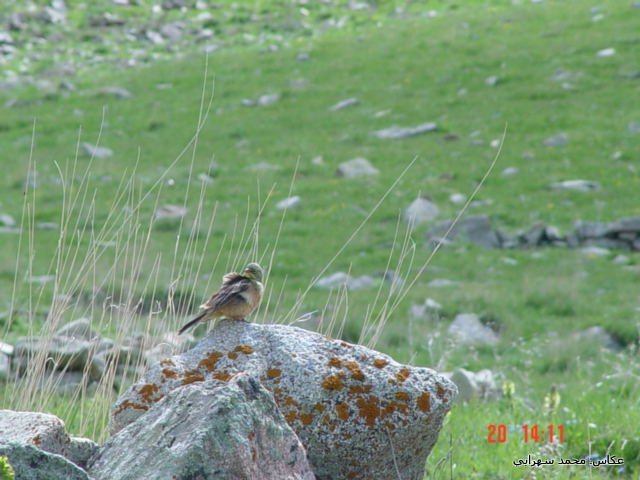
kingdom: Animalia
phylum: Chordata
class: Aves
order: Passeriformes
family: Emberizidae
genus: Emberiza
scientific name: Emberiza hortulana
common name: Ortolan bunting
